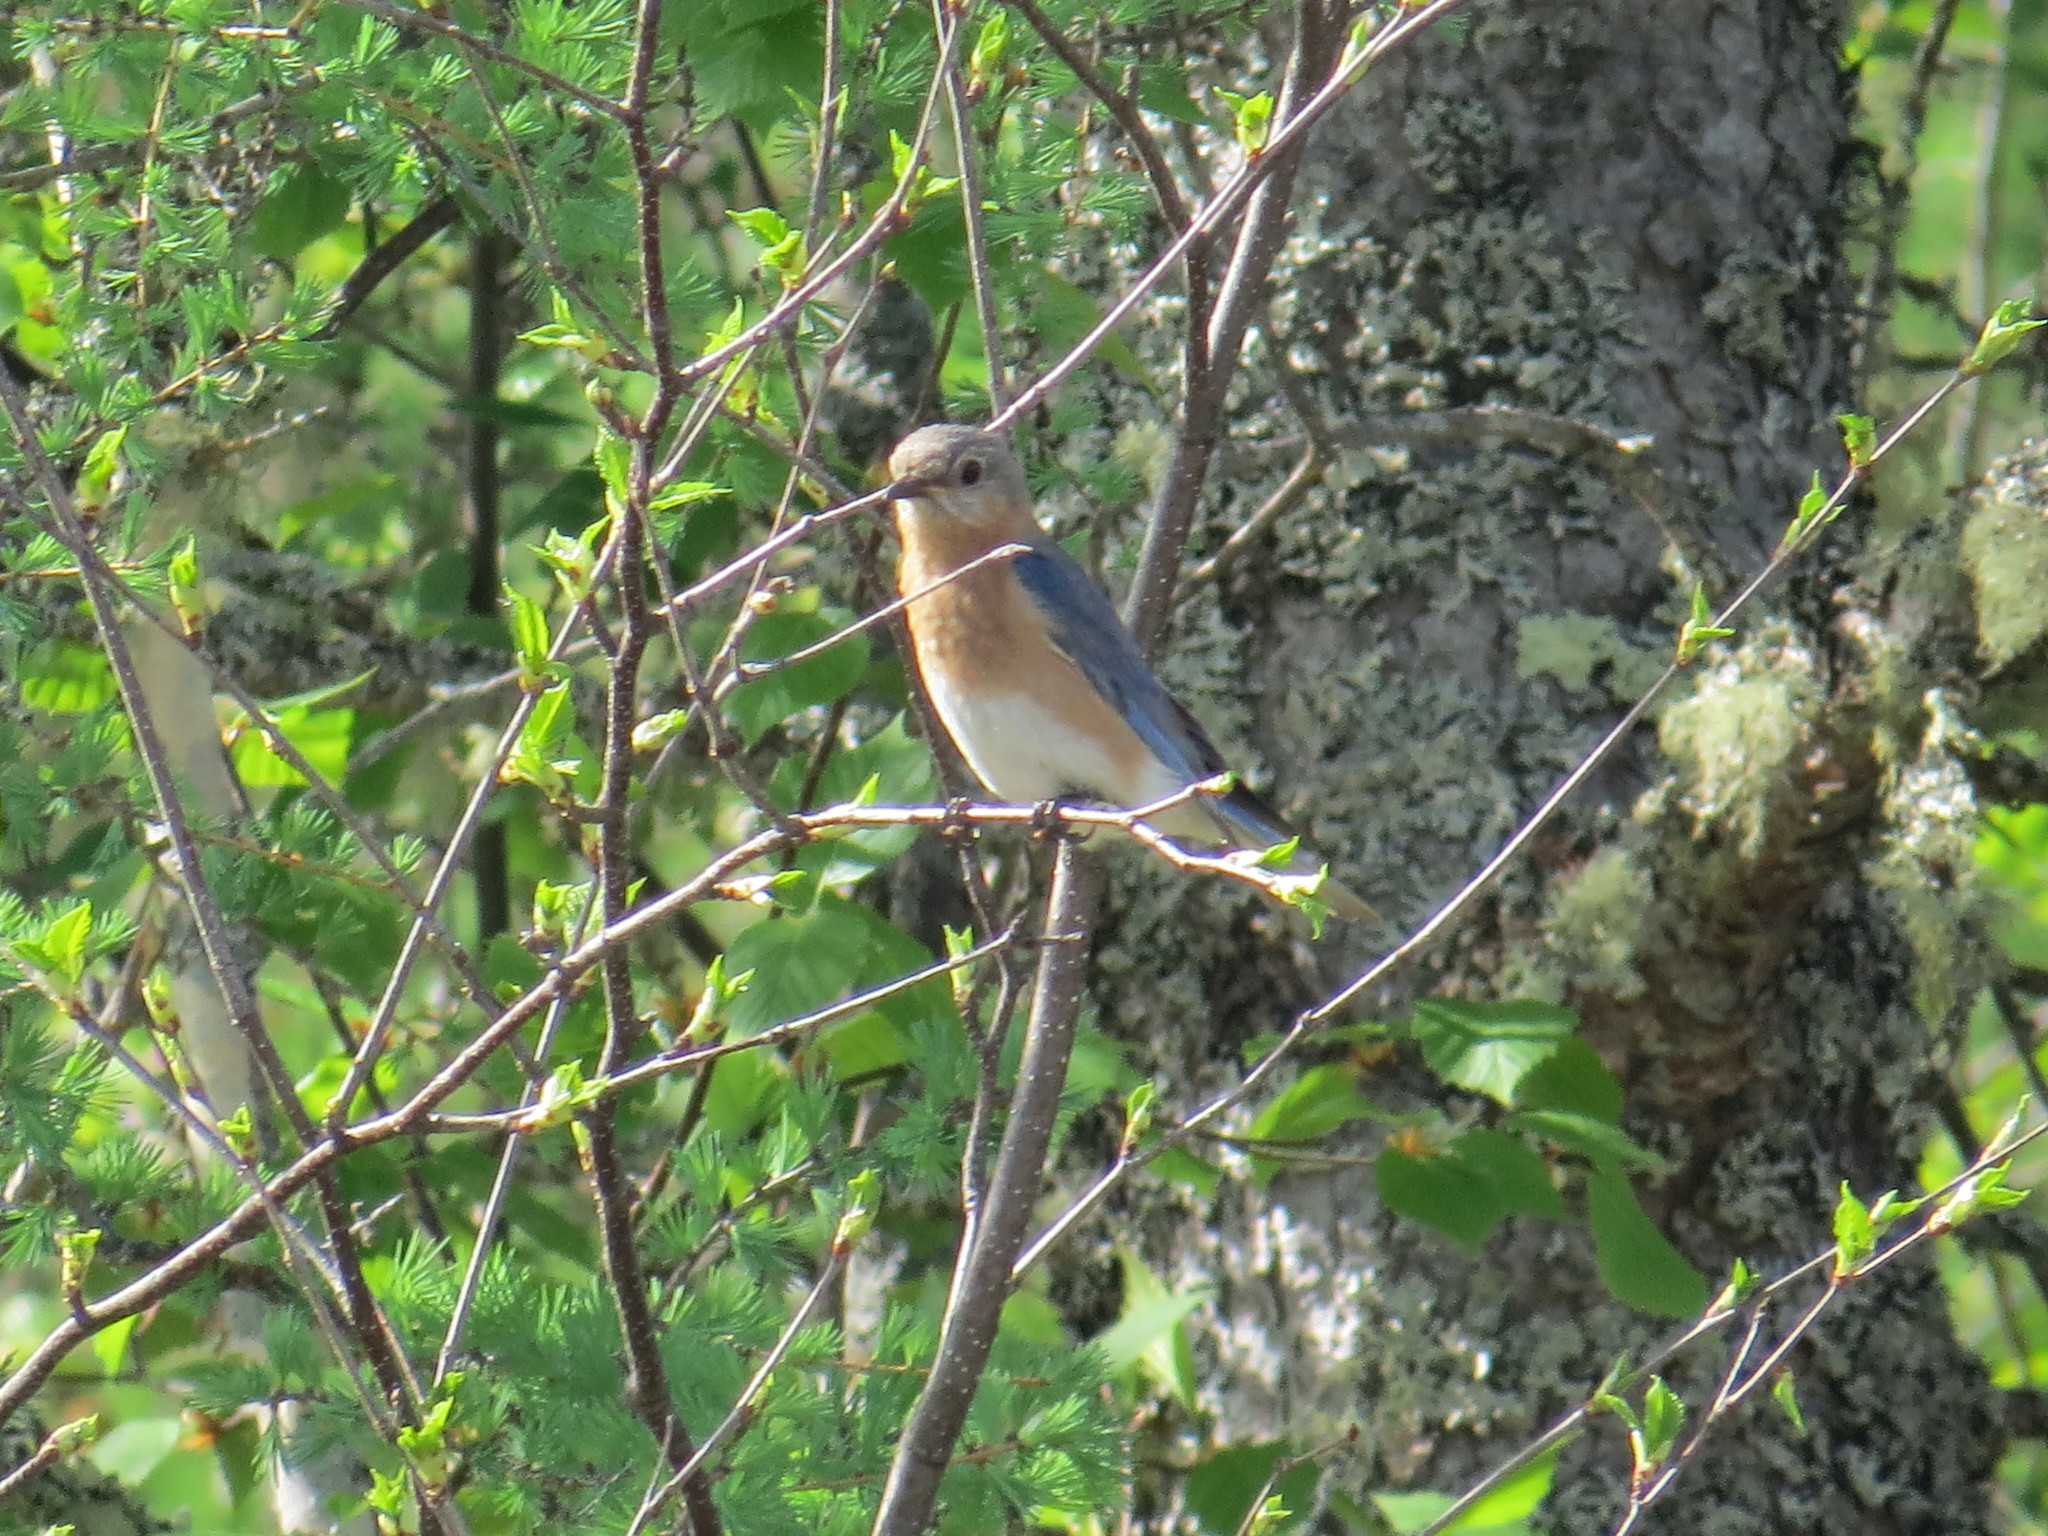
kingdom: Animalia
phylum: Chordata
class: Aves
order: Passeriformes
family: Turdidae
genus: Sialia
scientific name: Sialia sialis
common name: Eastern bluebird
